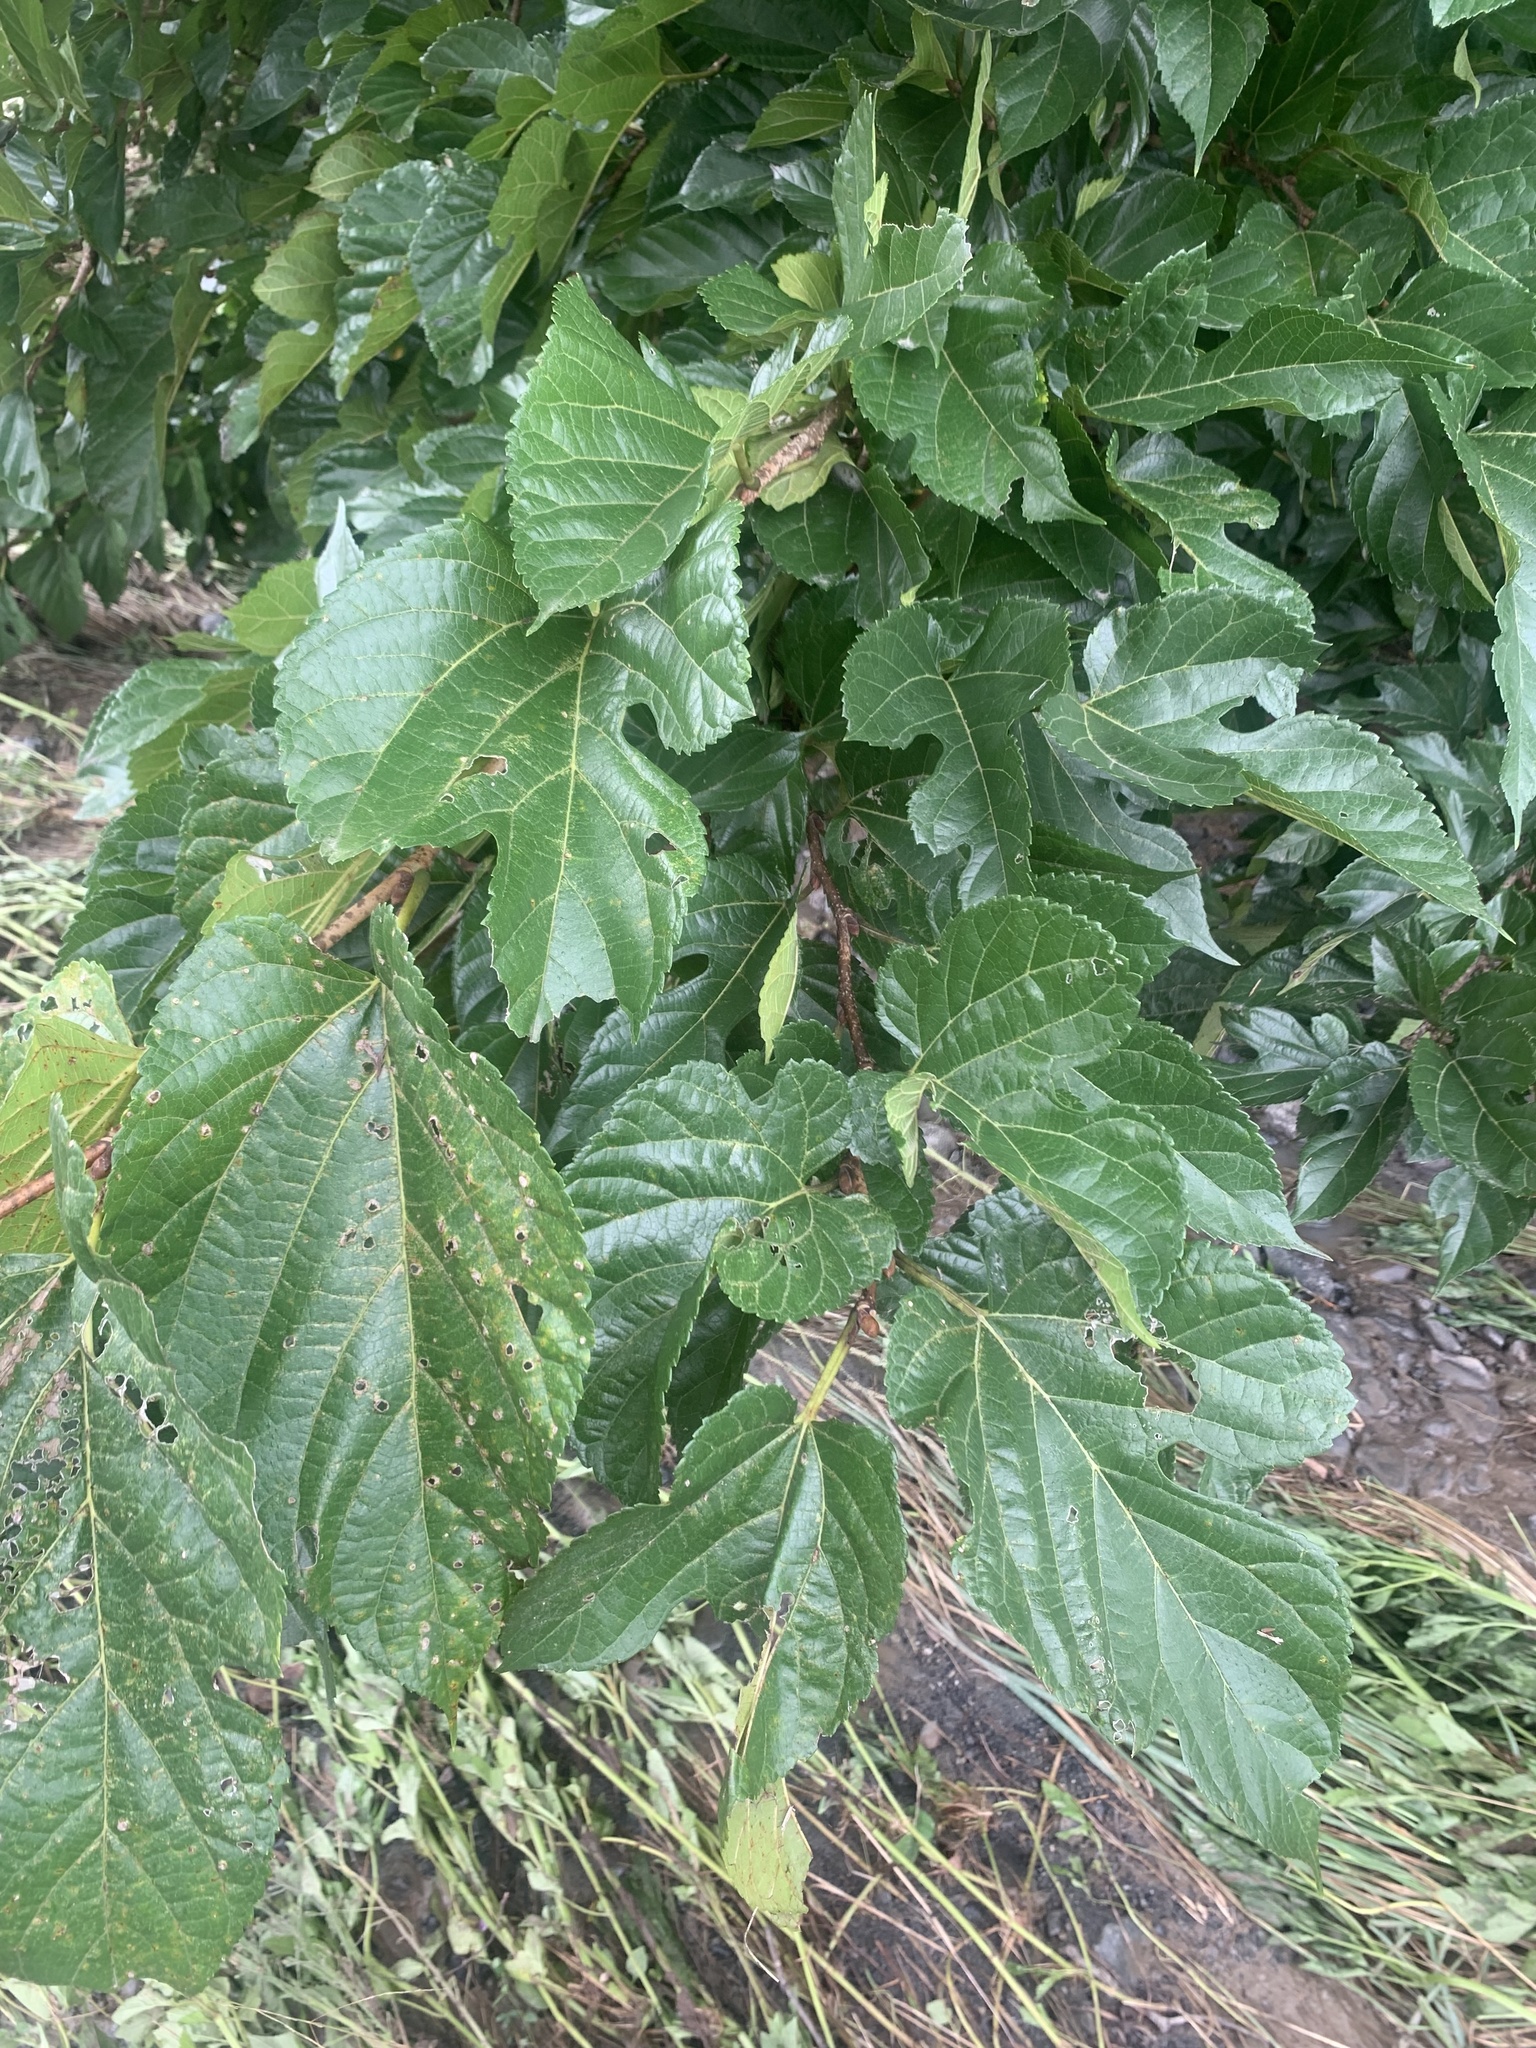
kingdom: Plantae
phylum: Tracheophyta
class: Magnoliopsida
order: Rosales
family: Moraceae
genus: Morus
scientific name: Morus indica
